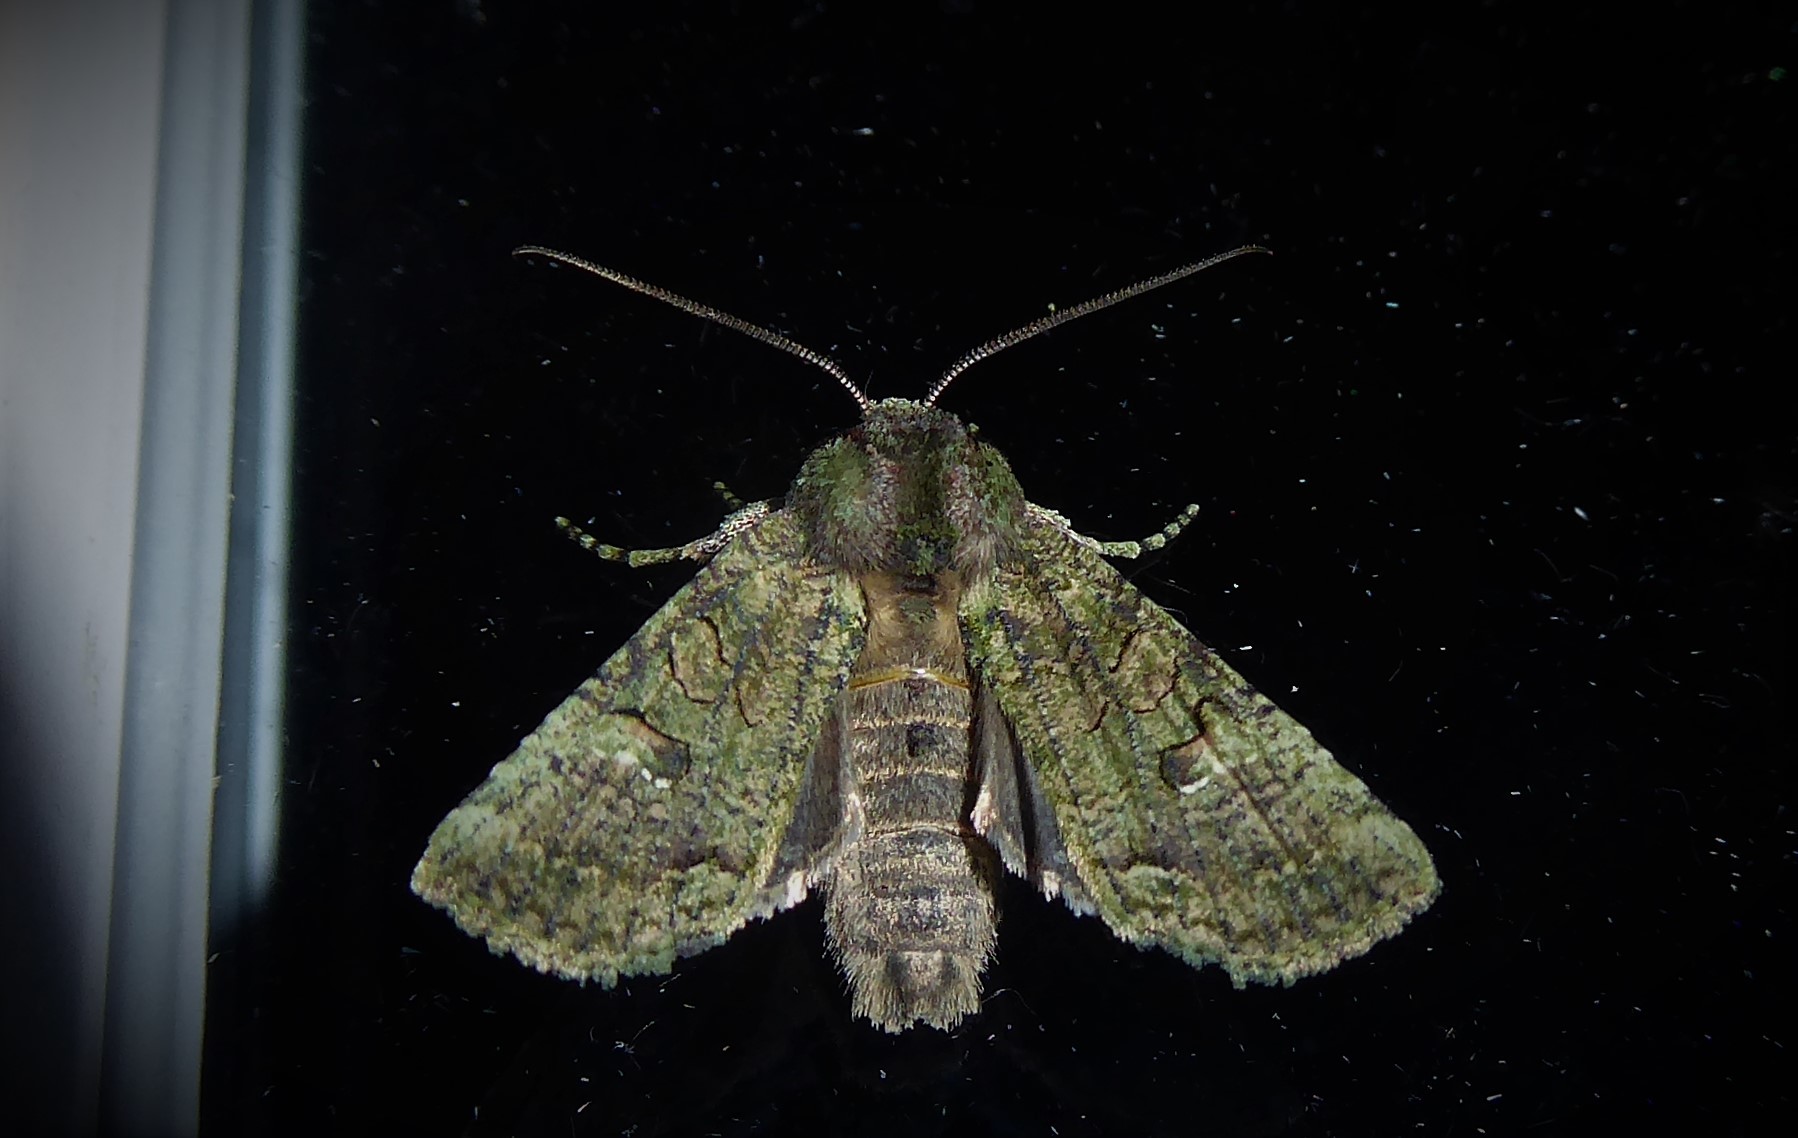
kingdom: Animalia
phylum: Arthropoda
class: Insecta
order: Lepidoptera
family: Noctuidae
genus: Meterana
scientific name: Meterana levis
